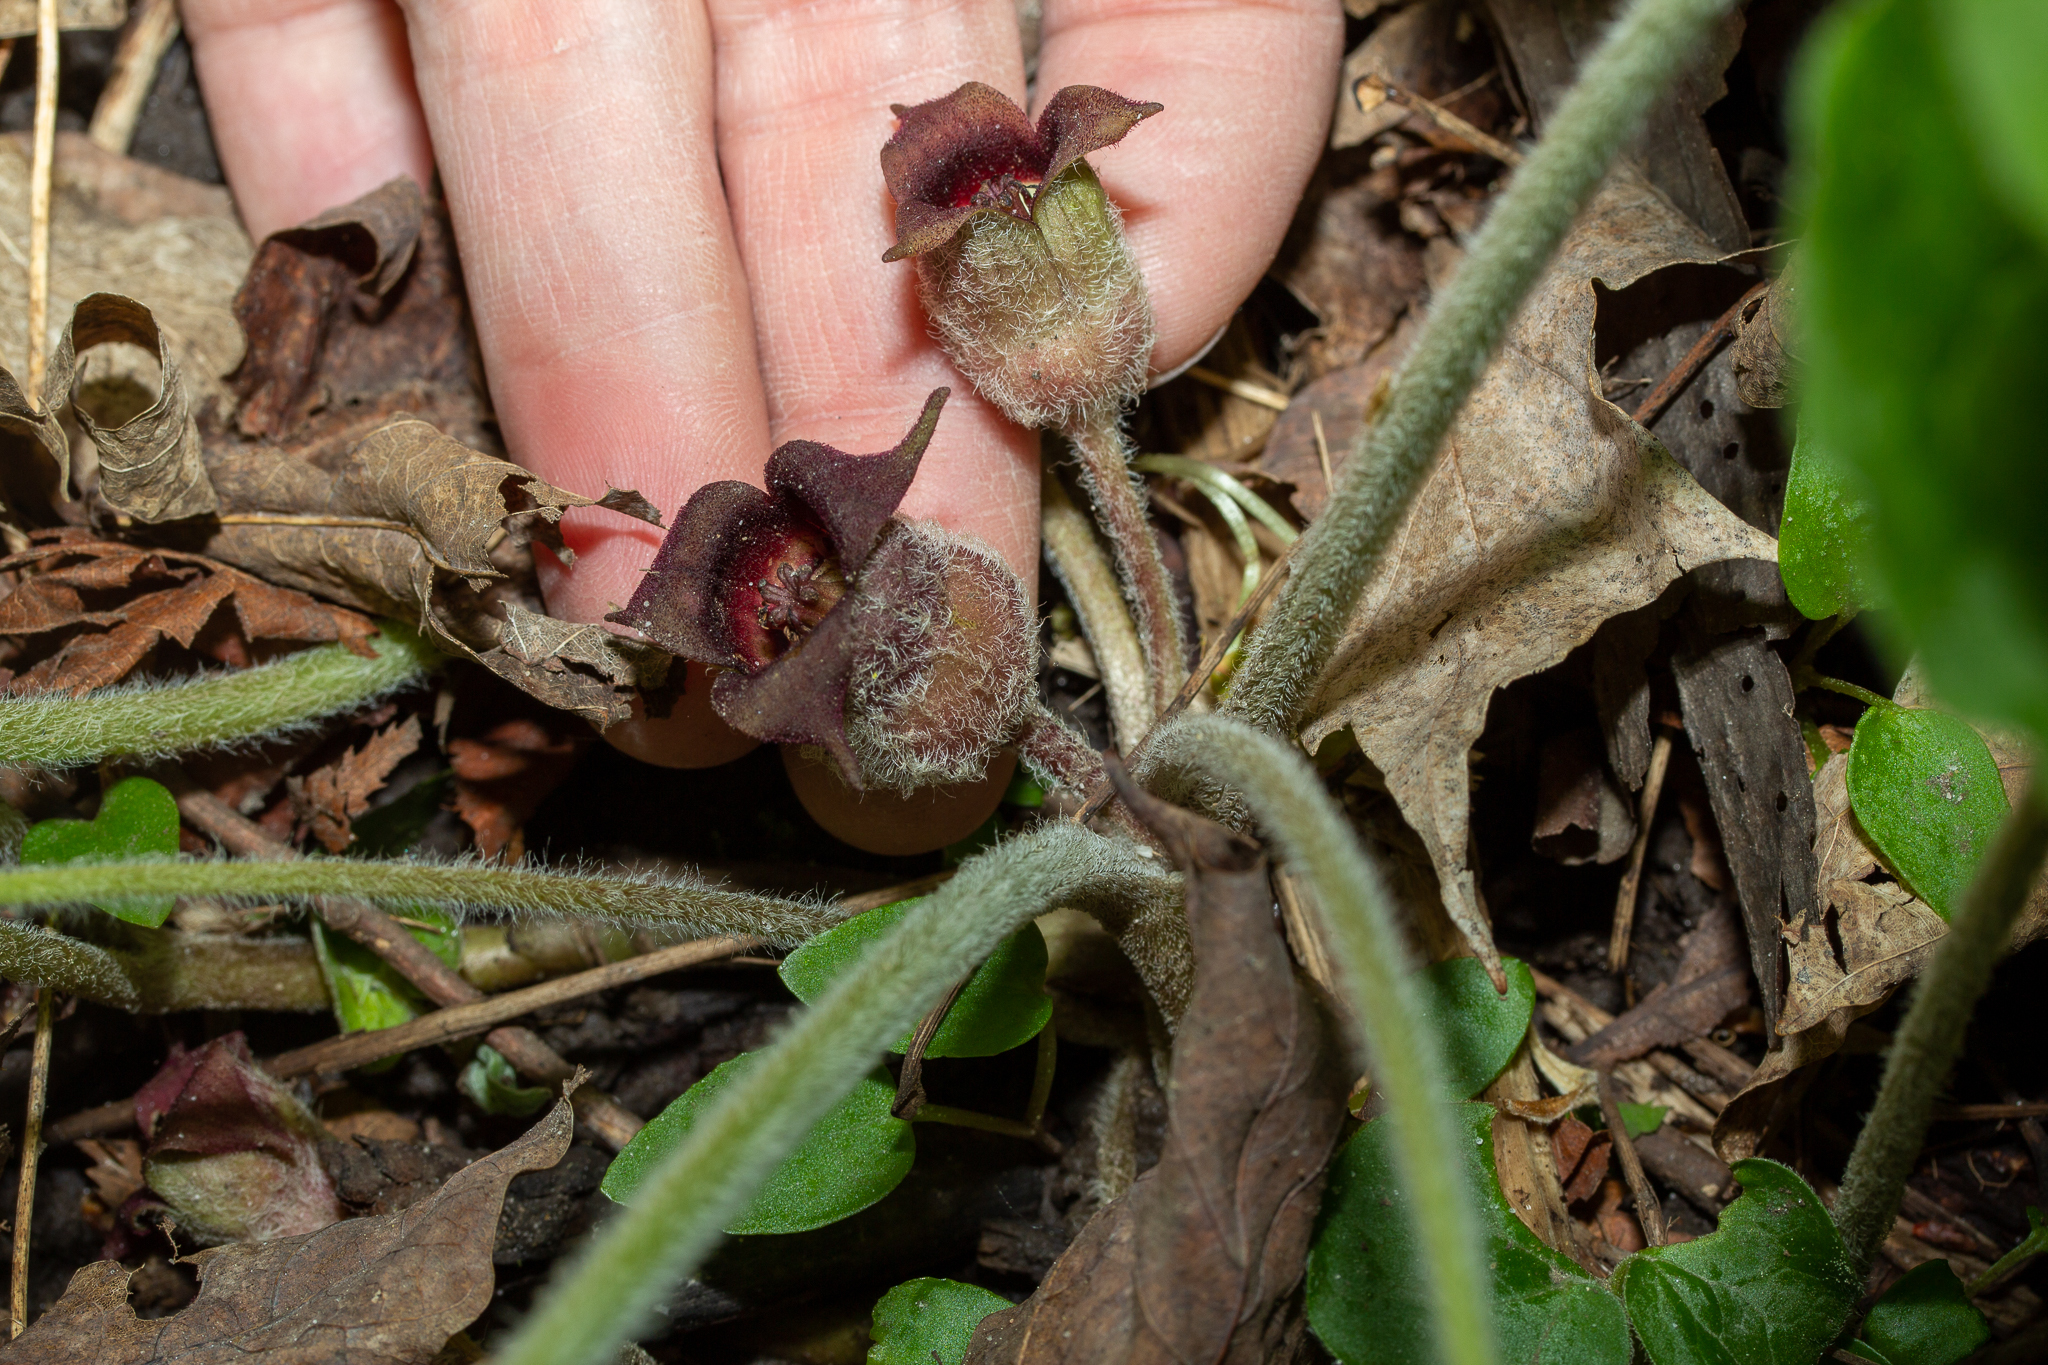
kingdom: Plantae
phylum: Tracheophyta
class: Magnoliopsida
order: Piperales
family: Aristolochiaceae
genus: Asarum
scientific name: Asarum canadense
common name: Wild ginger
